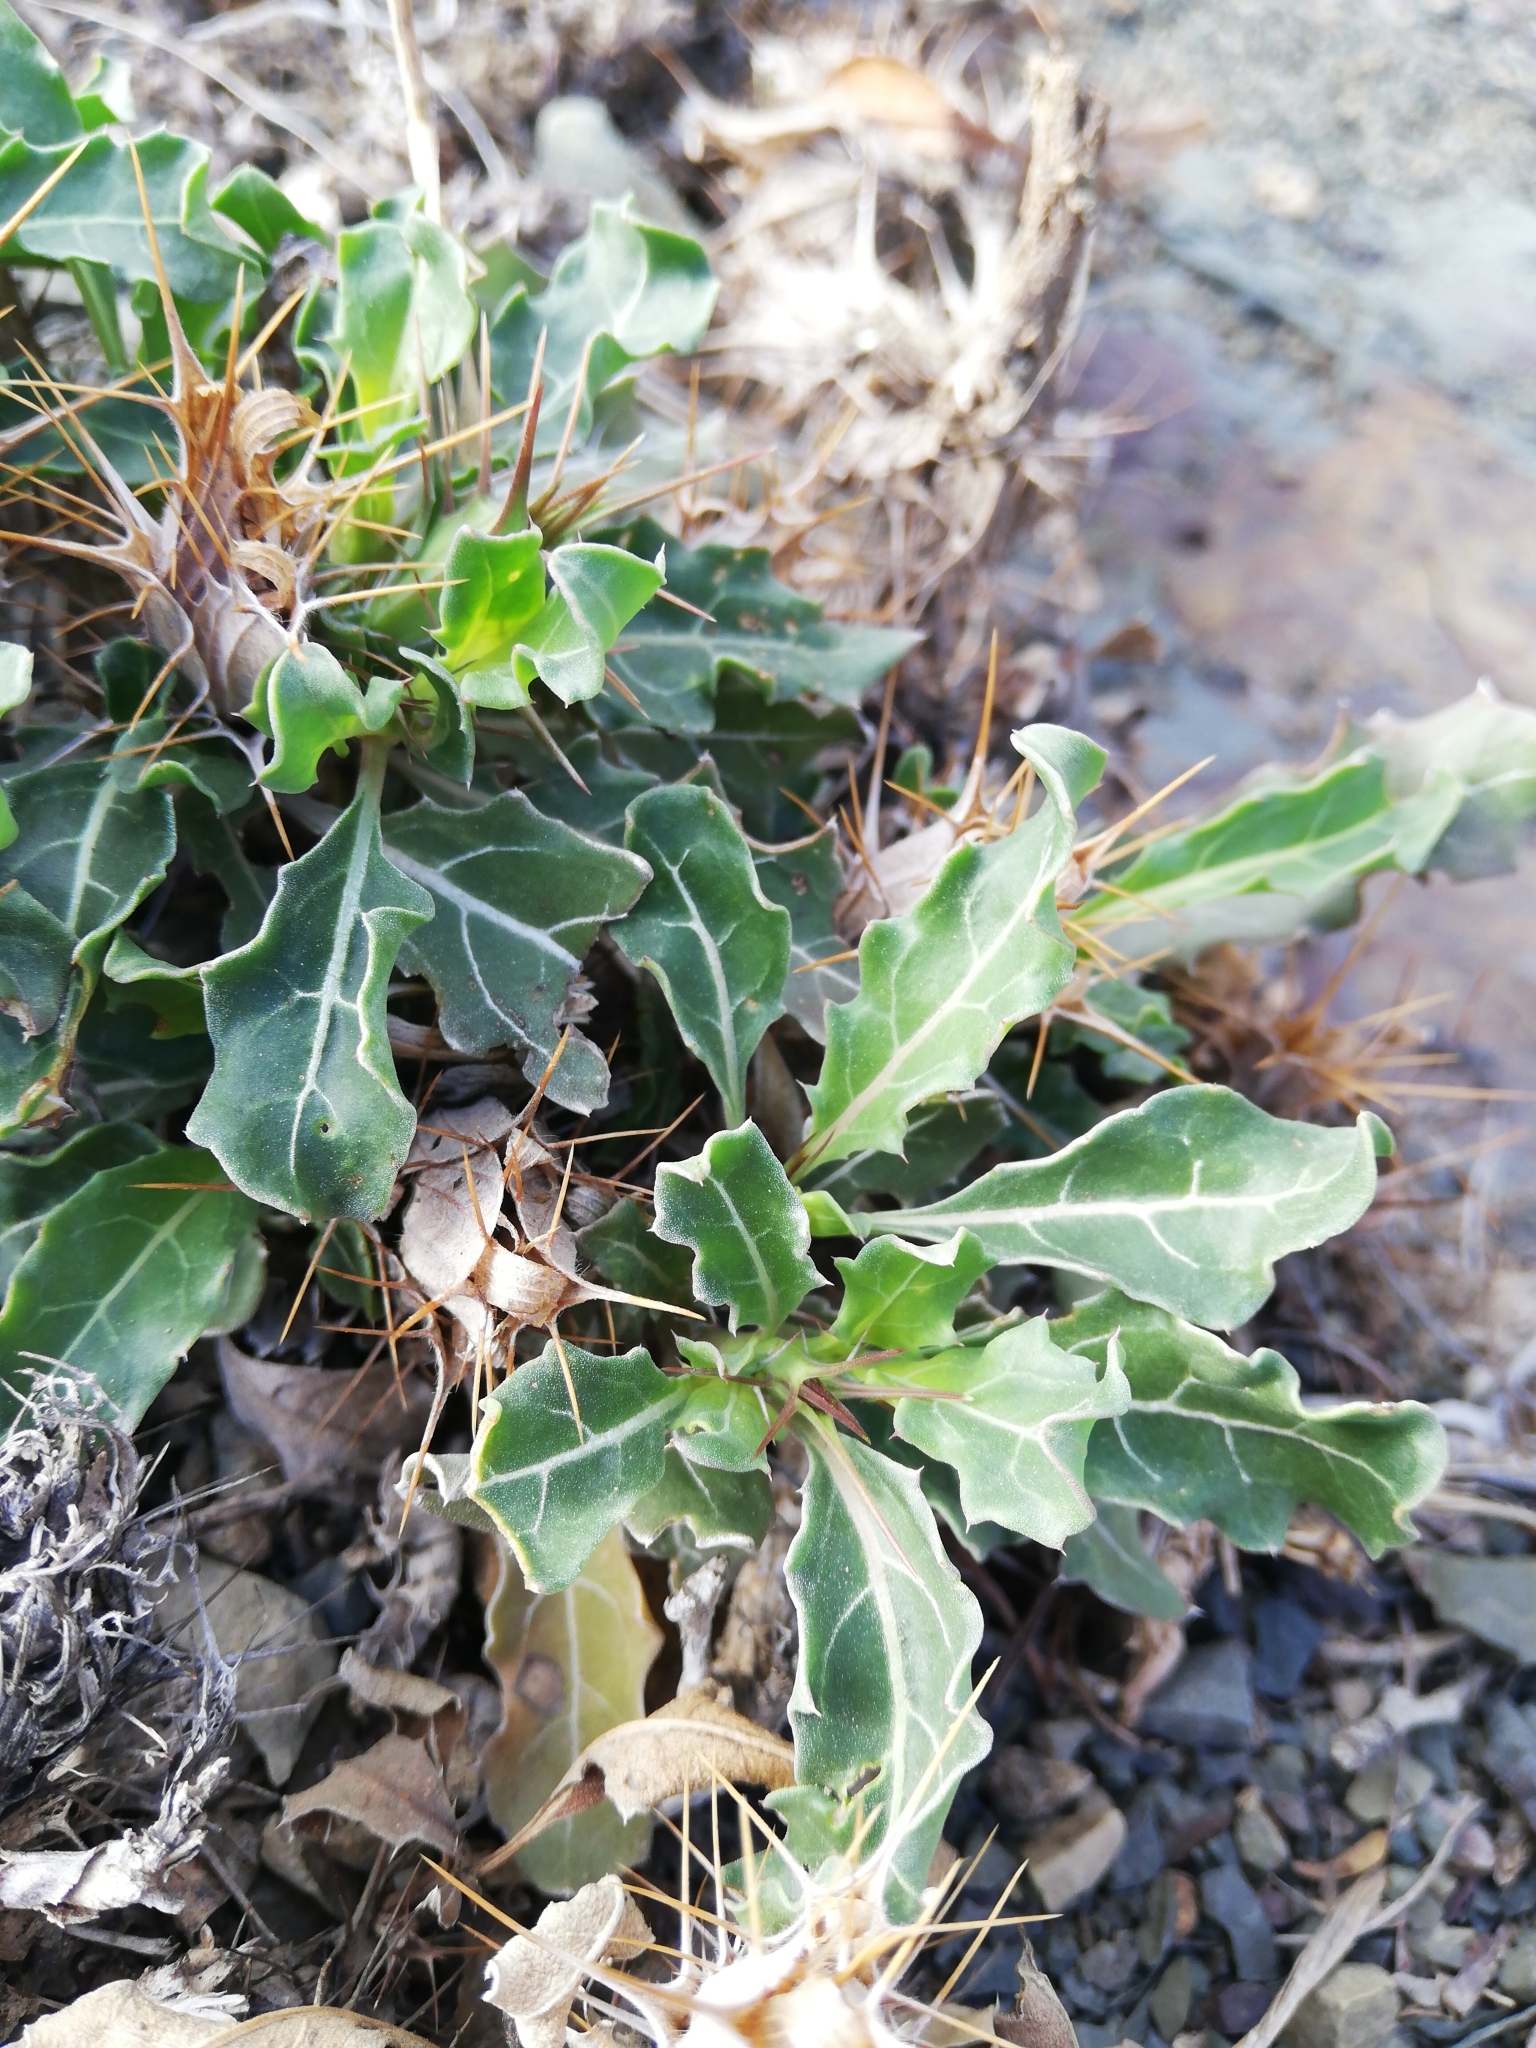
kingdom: Plantae
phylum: Tracheophyta
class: Magnoliopsida
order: Lamiales
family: Acanthaceae
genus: Blepharis
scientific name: Blepharis mitrata
